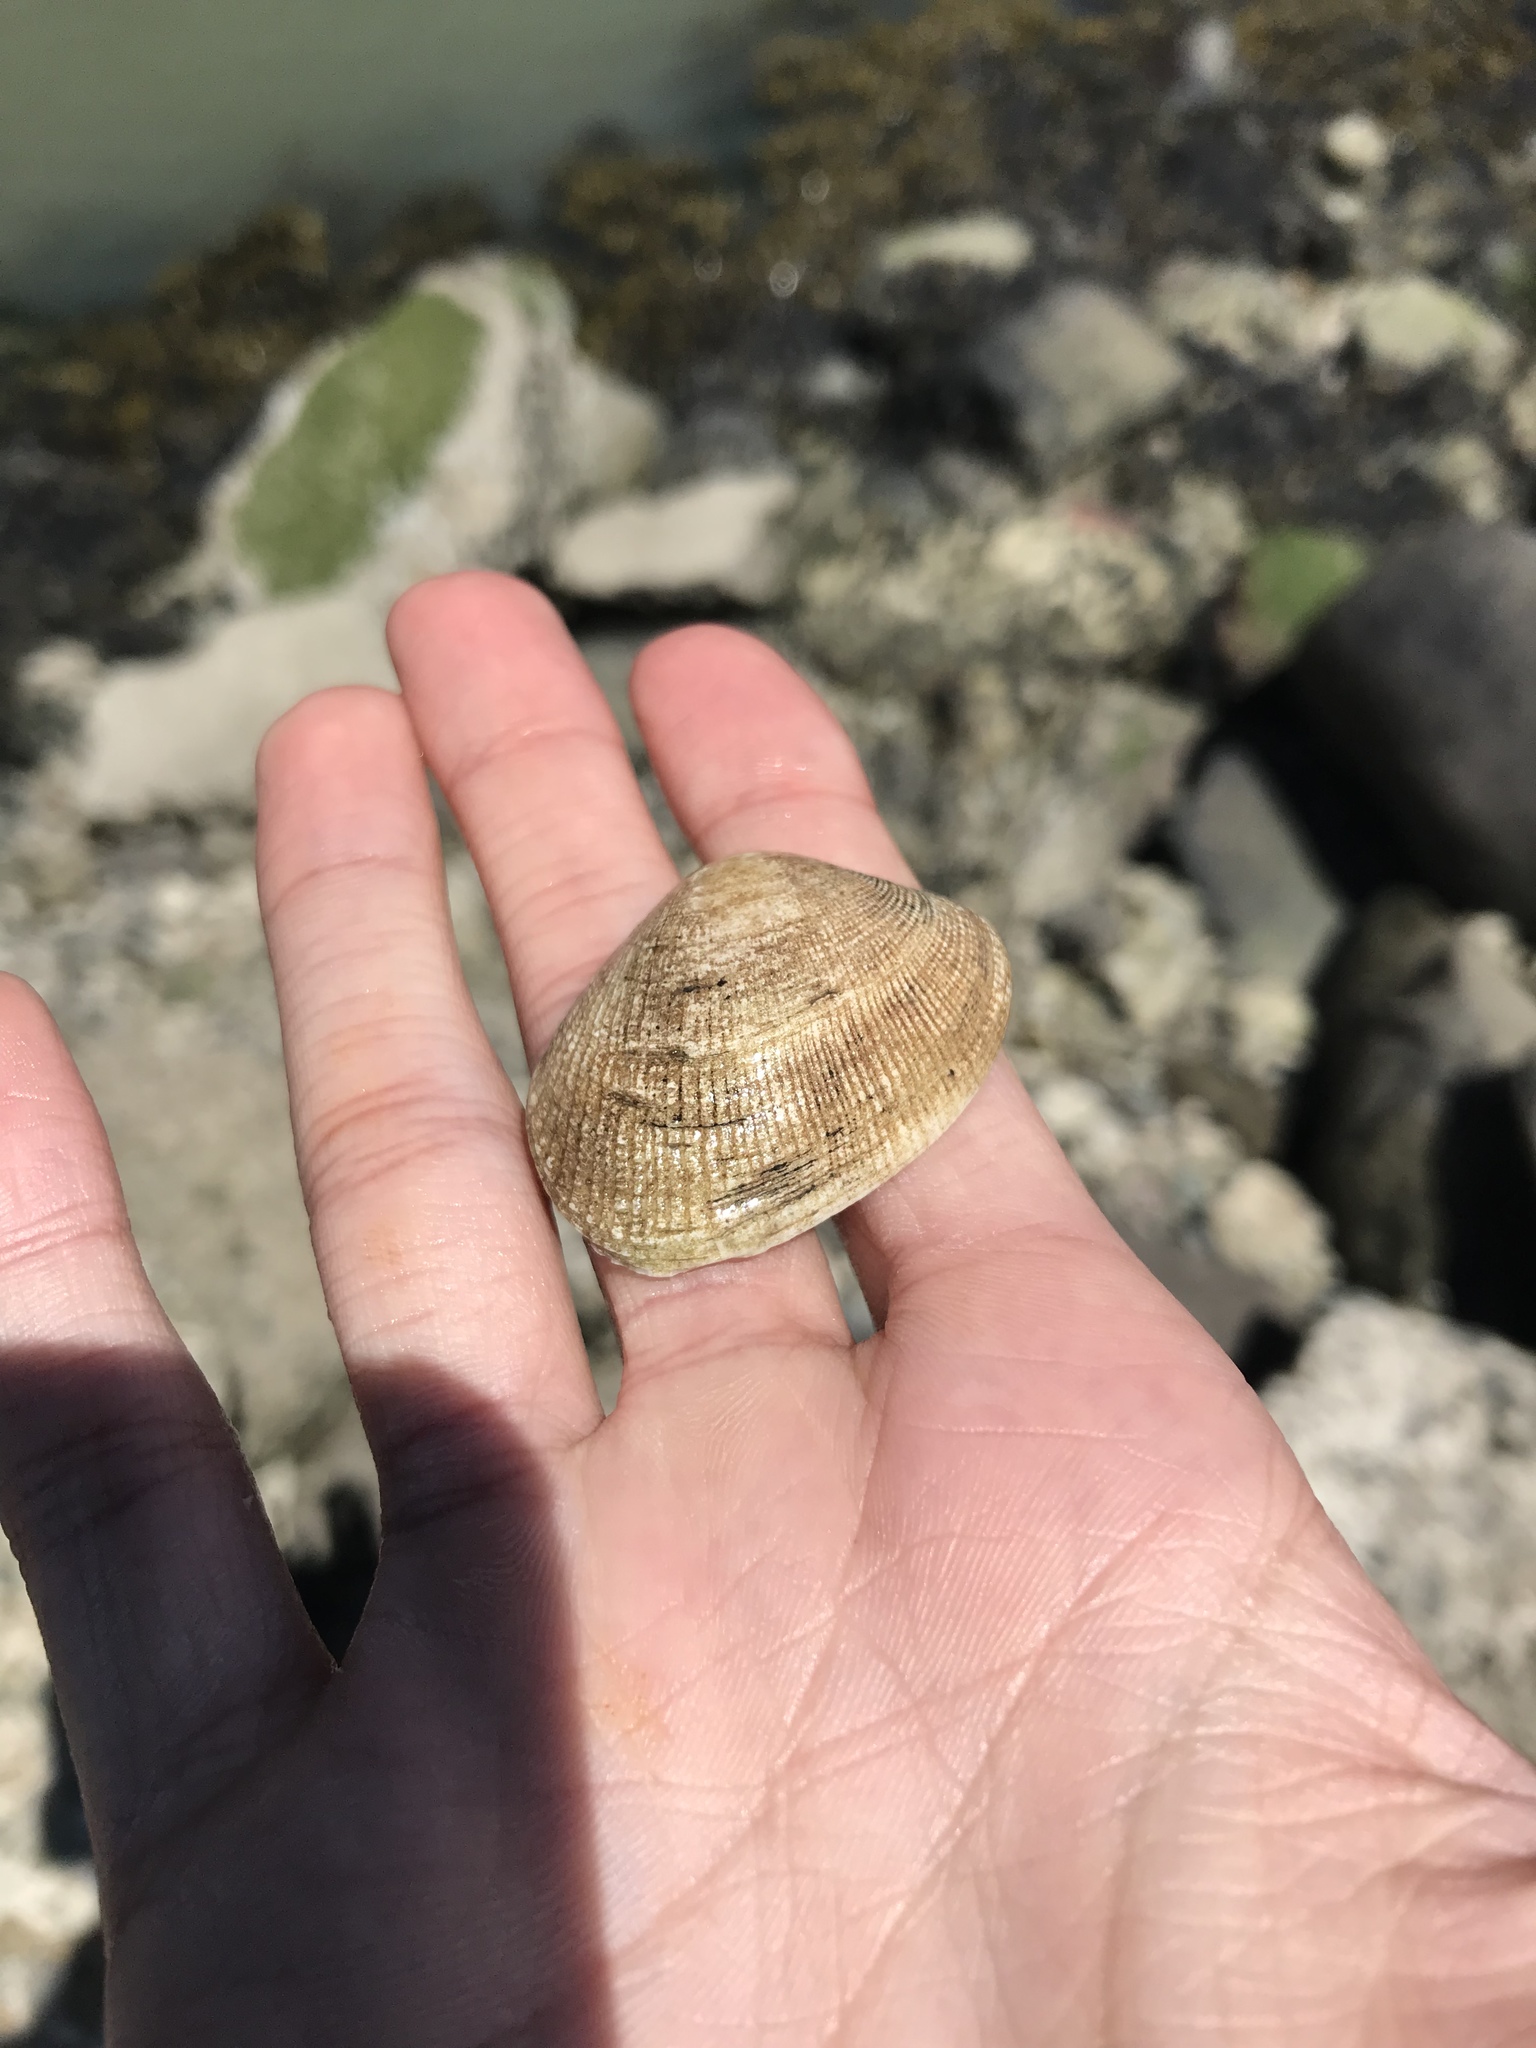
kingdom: Animalia
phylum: Mollusca
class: Bivalvia
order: Venerida
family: Veneridae
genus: Ruditapes
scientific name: Ruditapes philippinarum
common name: Manila clam
